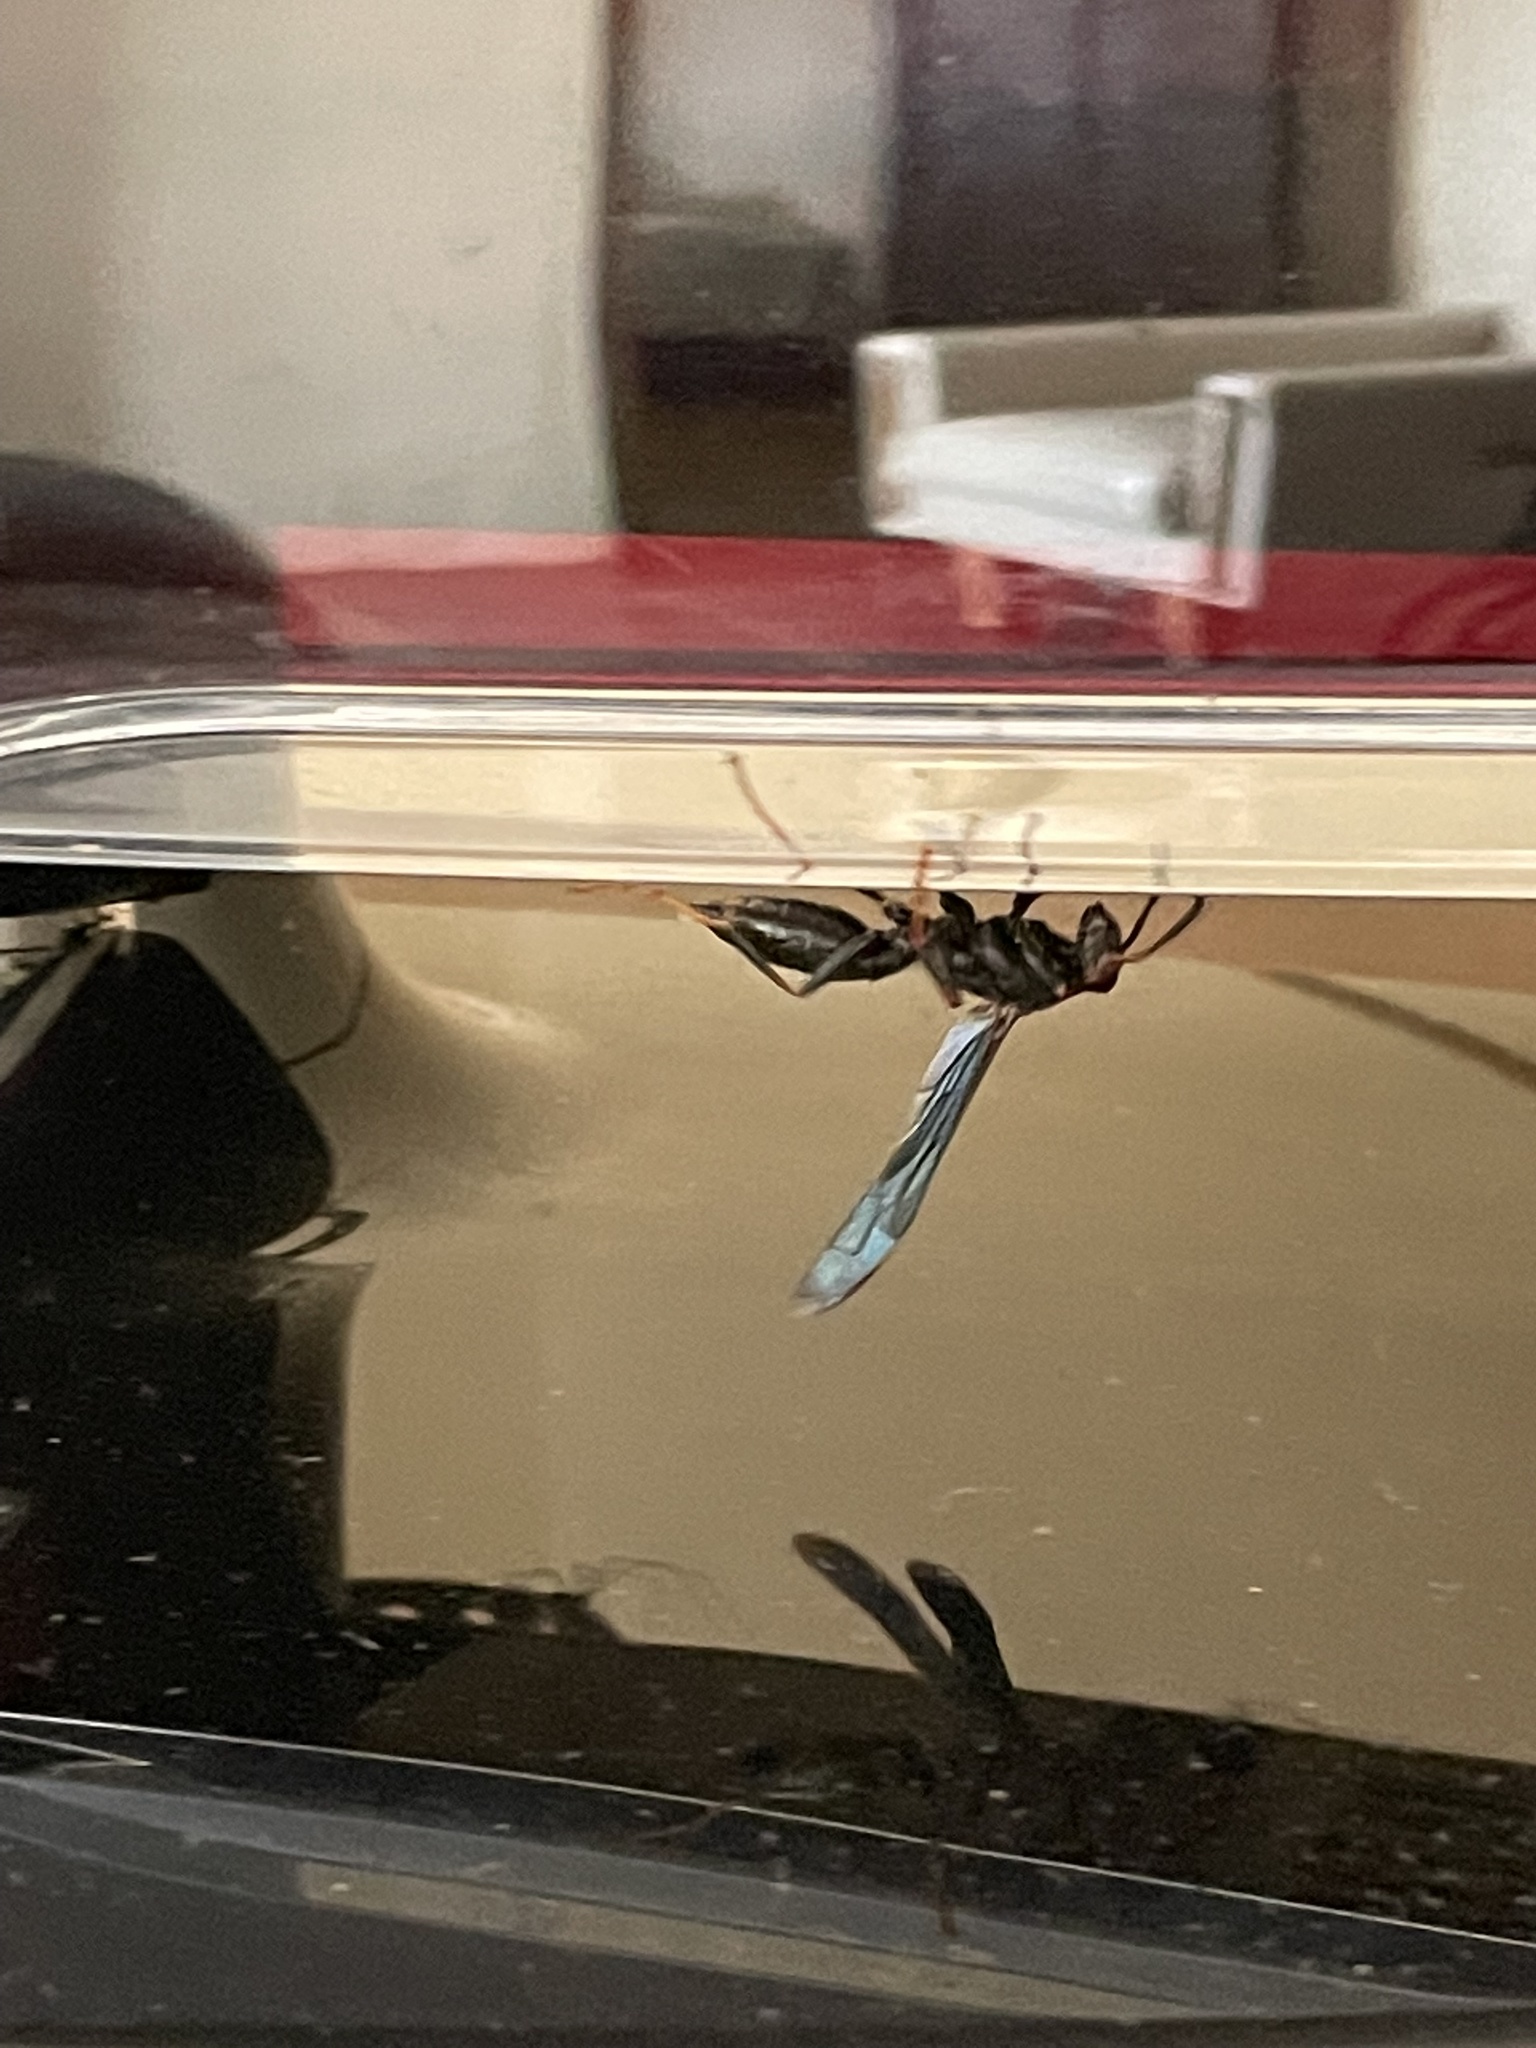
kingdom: Animalia
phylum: Arthropoda
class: Insecta
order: Hymenoptera
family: Eumenidae
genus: Polistes
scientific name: Polistes satan
